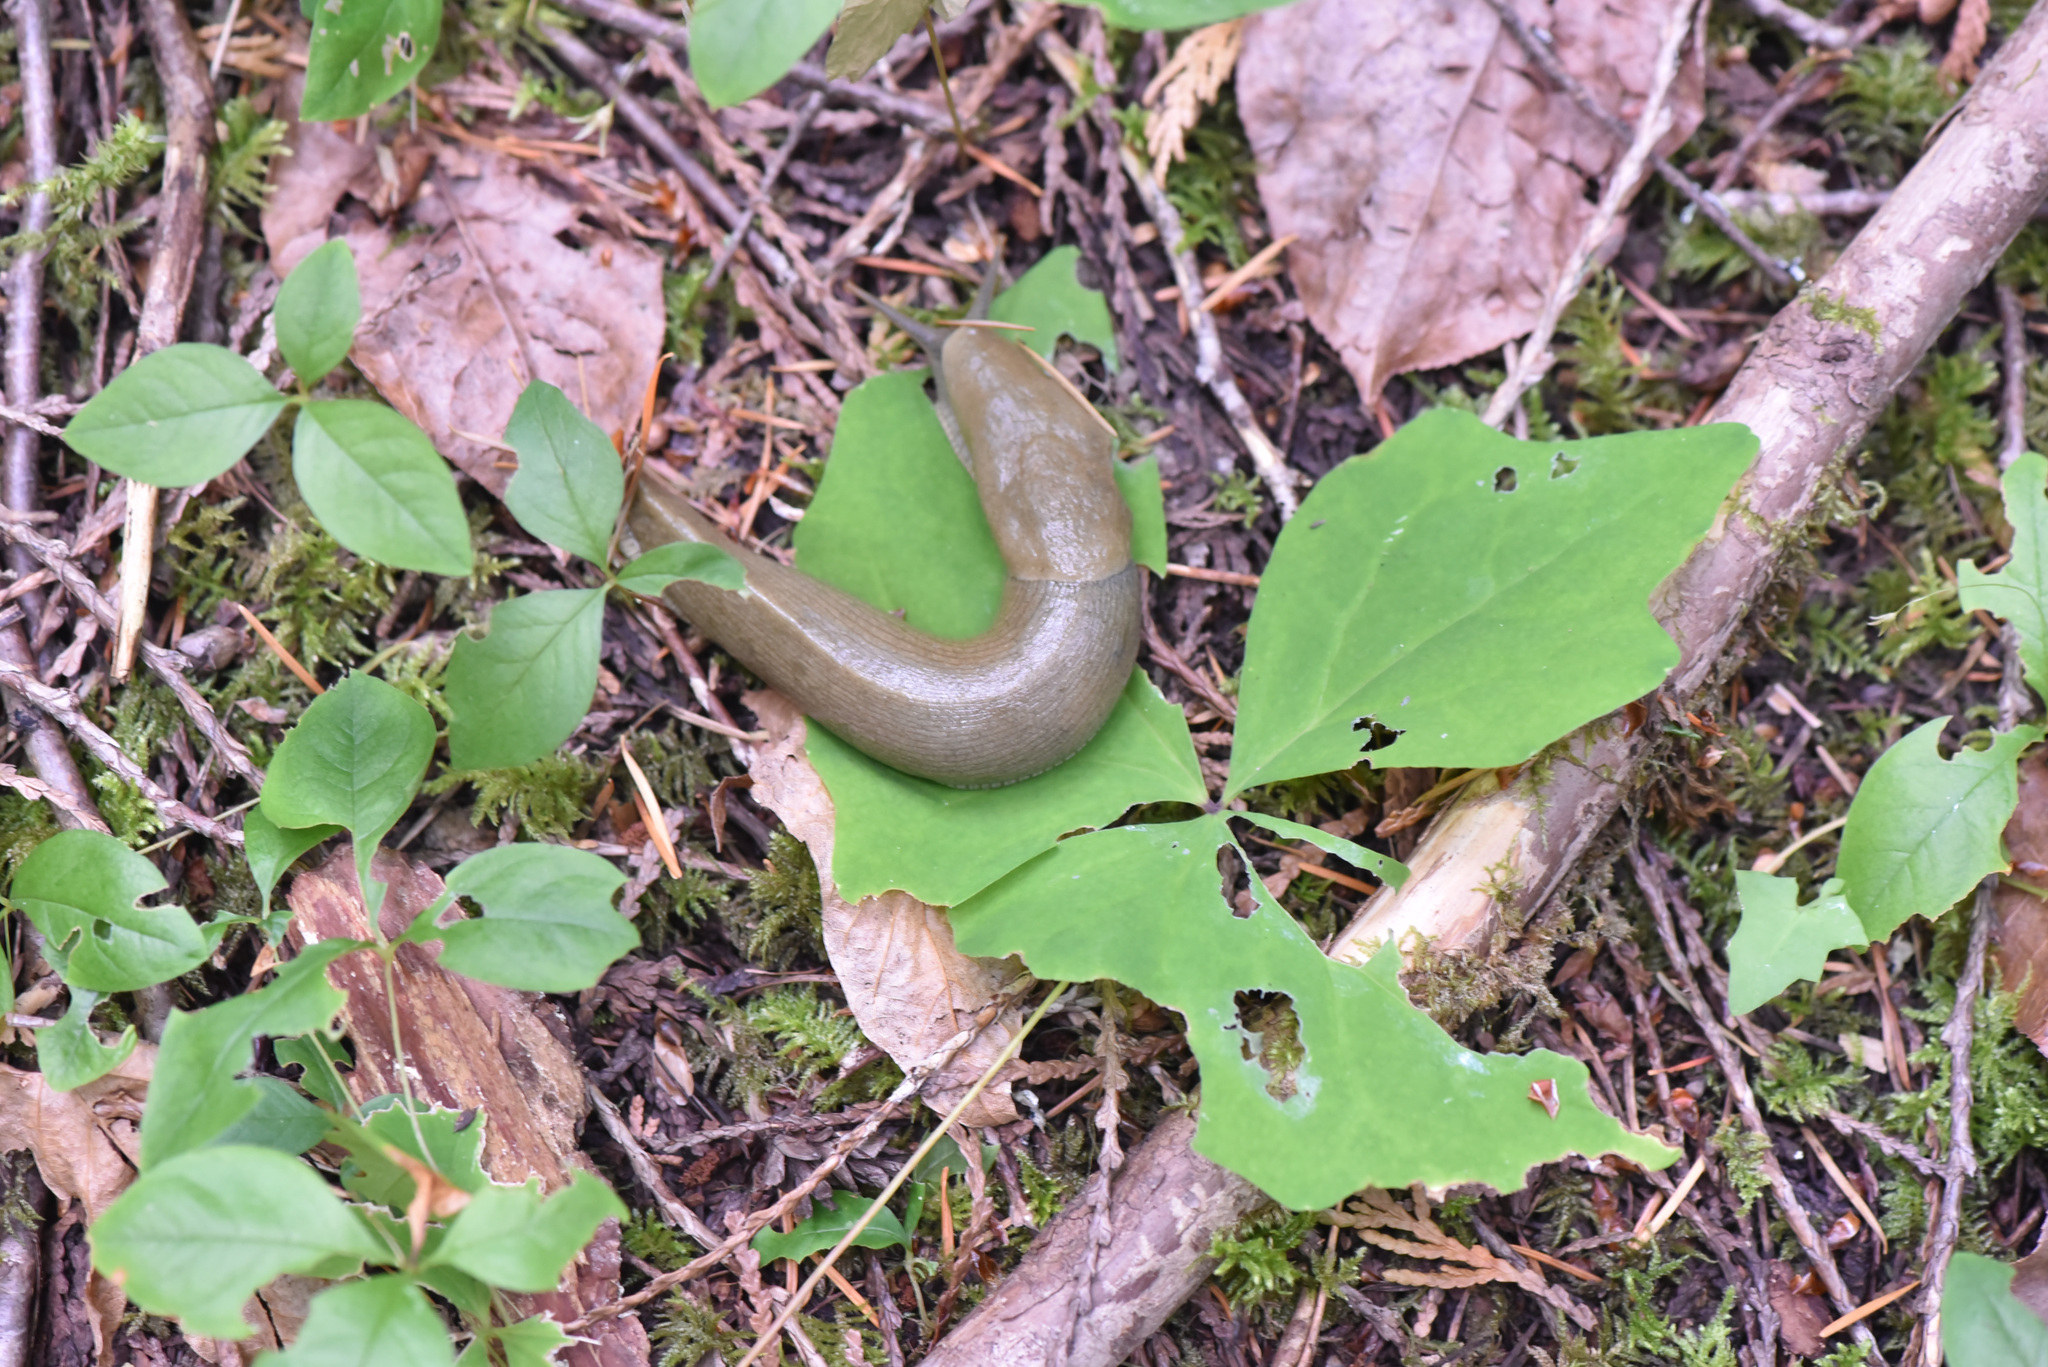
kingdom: Animalia
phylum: Mollusca
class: Gastropoda
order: Stylommatophora
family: Ariolimacidae
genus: Ariolimax
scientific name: Ariolimax columbianus
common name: Pacific banana slug
